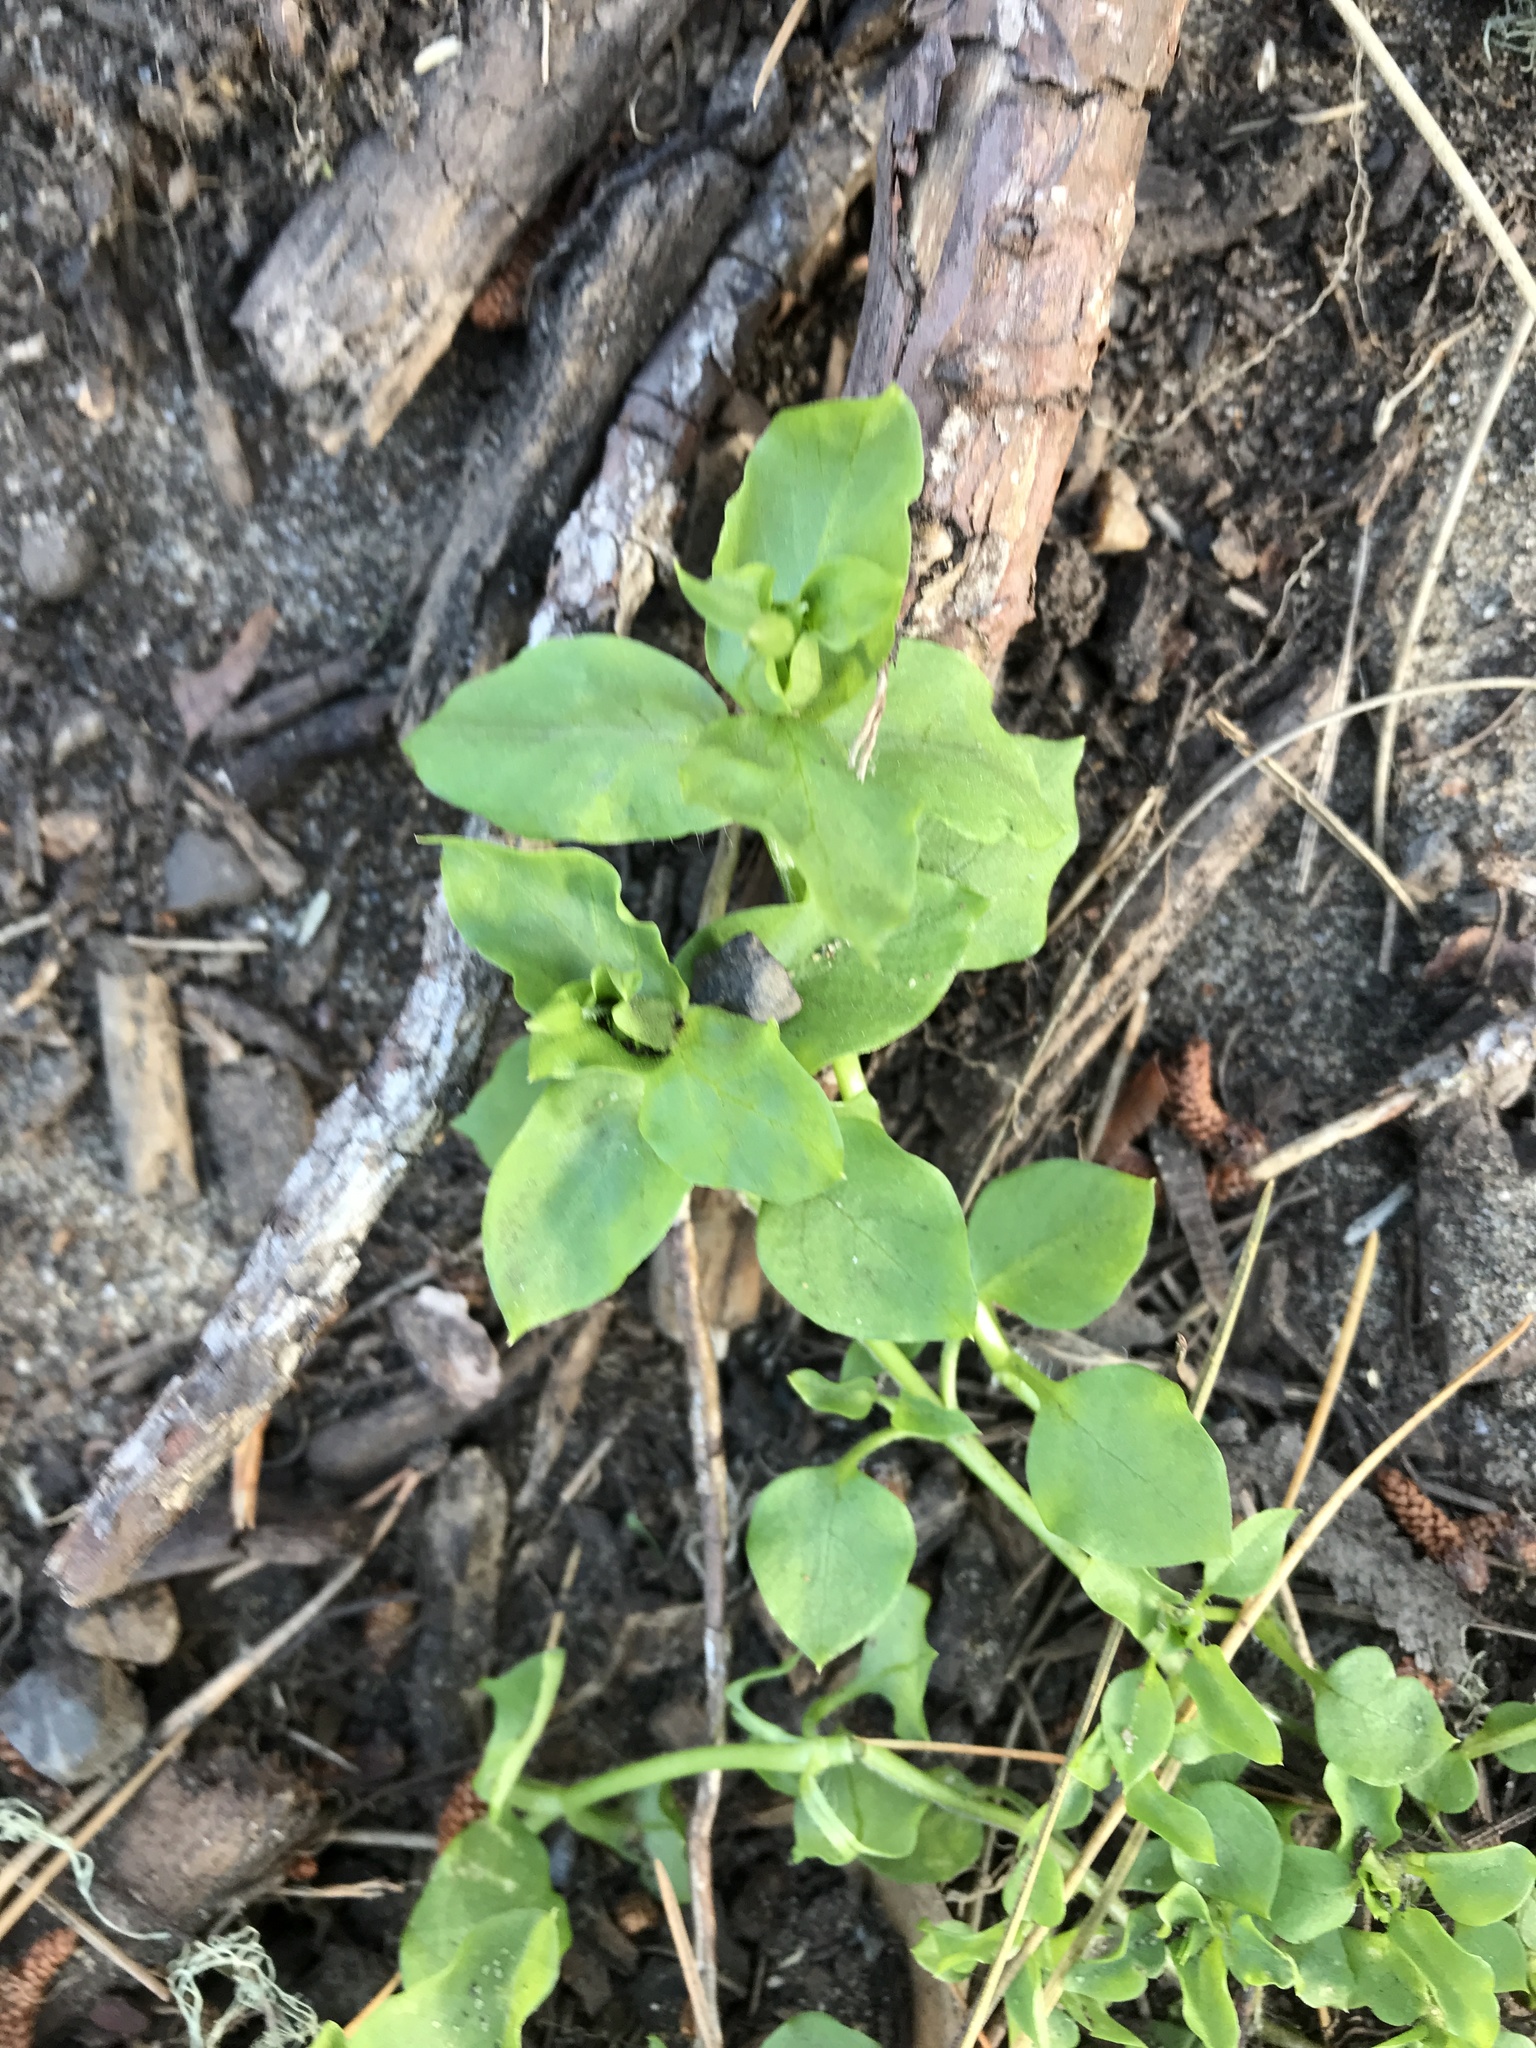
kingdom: Plantae
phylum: Tracheophyta
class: Magnoliopsida
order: Caryophyllales
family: Caryophyllaceae
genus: Stellaria
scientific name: Stellaria media
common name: Common chickweed
